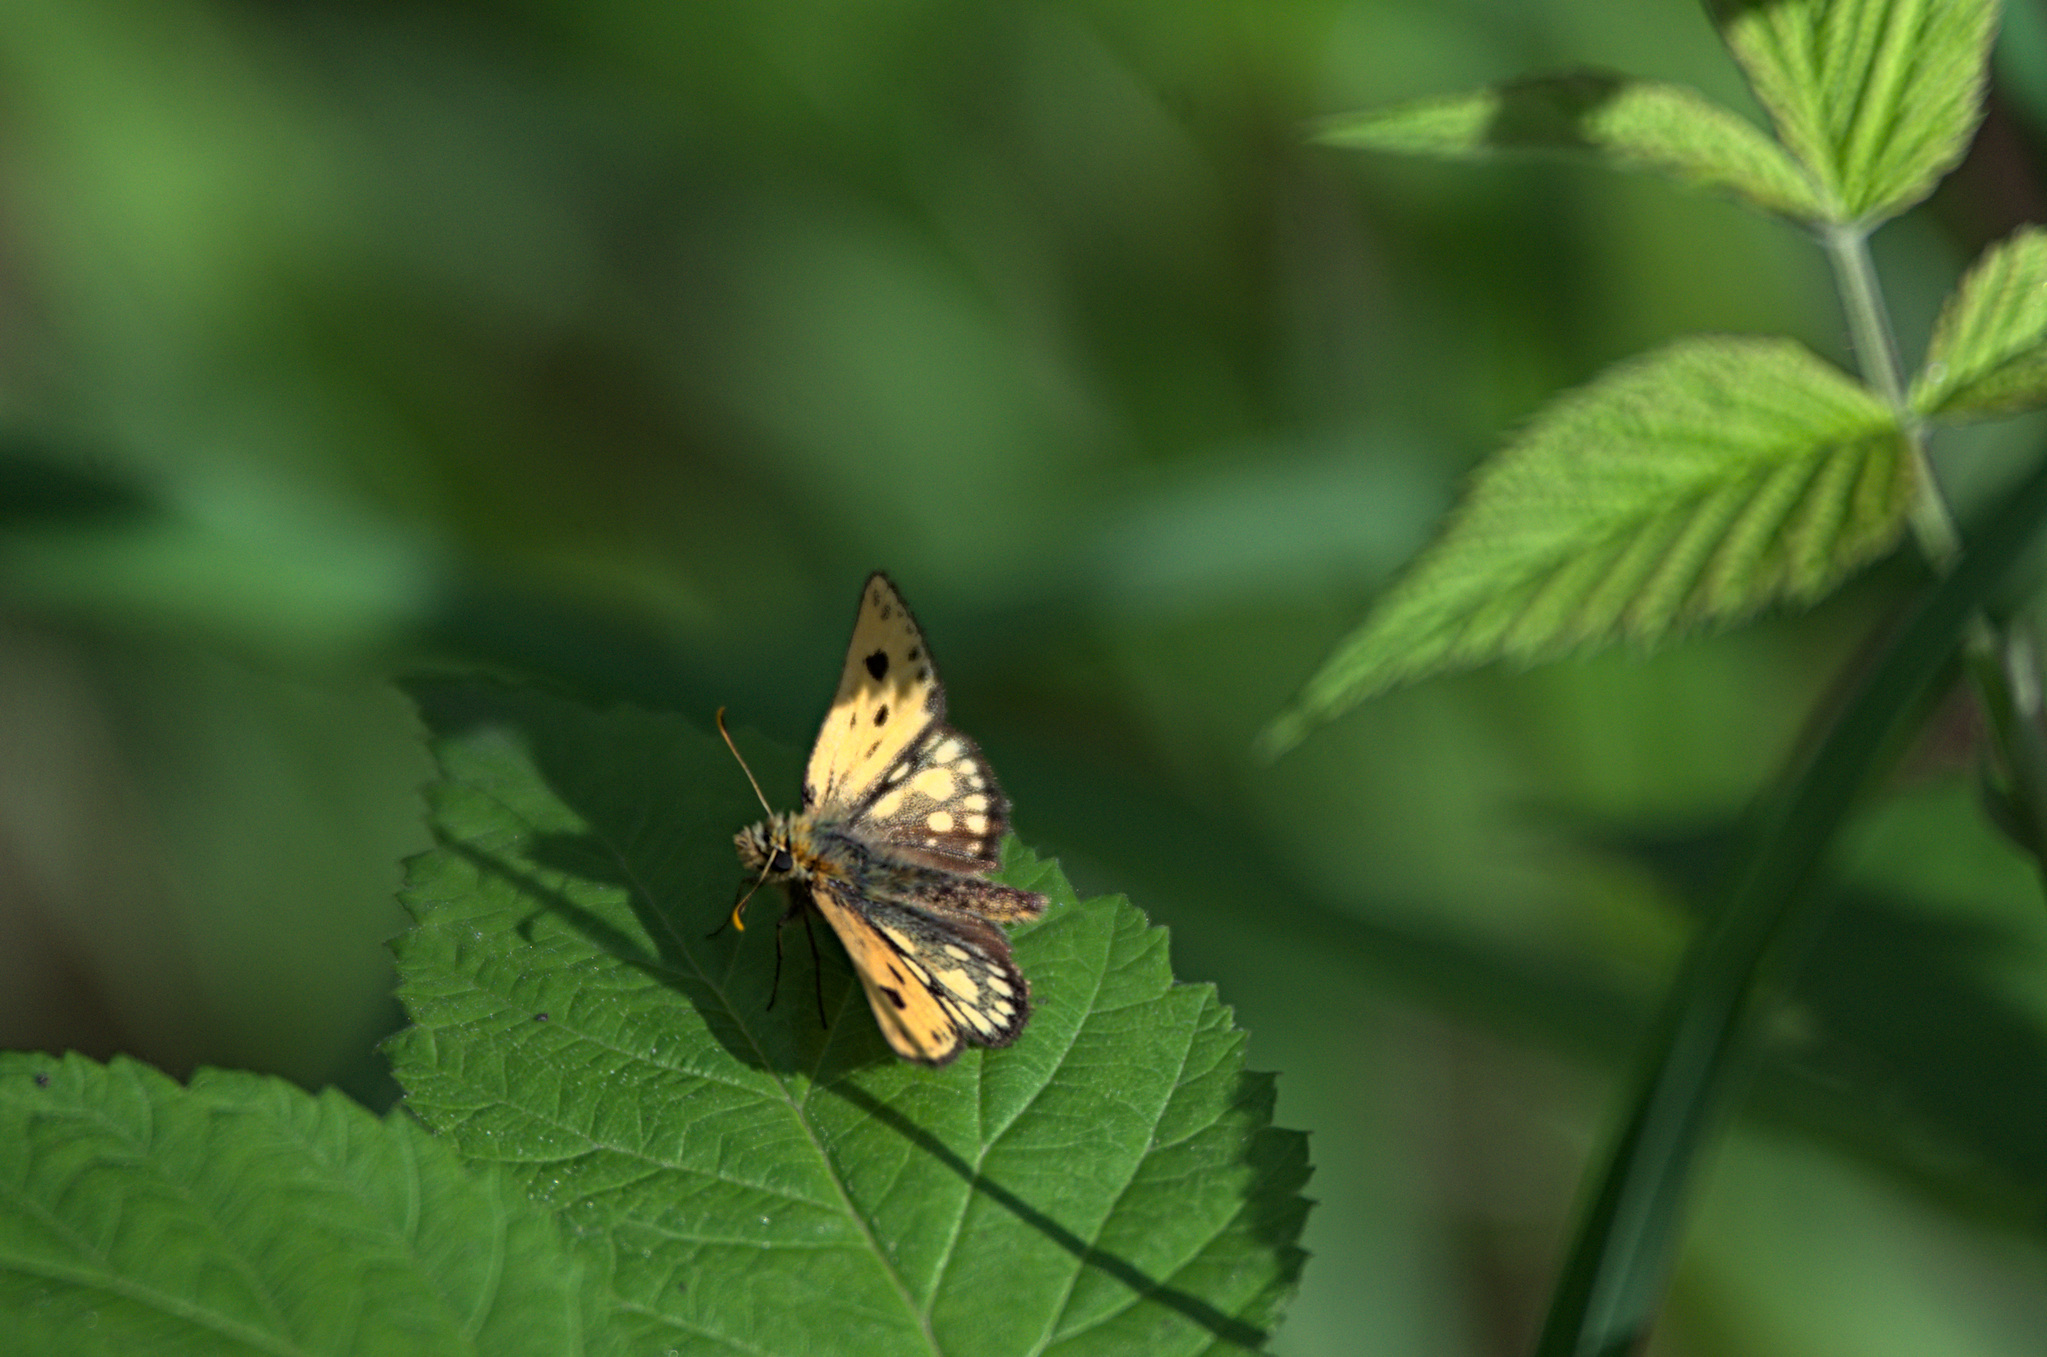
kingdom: Animalia
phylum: Arthropoda
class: Insecta
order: Lepidoptera
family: Hesperiidae
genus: Carterocephalus
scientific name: Carterocephalus silvicola
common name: Northern chequered skipper
